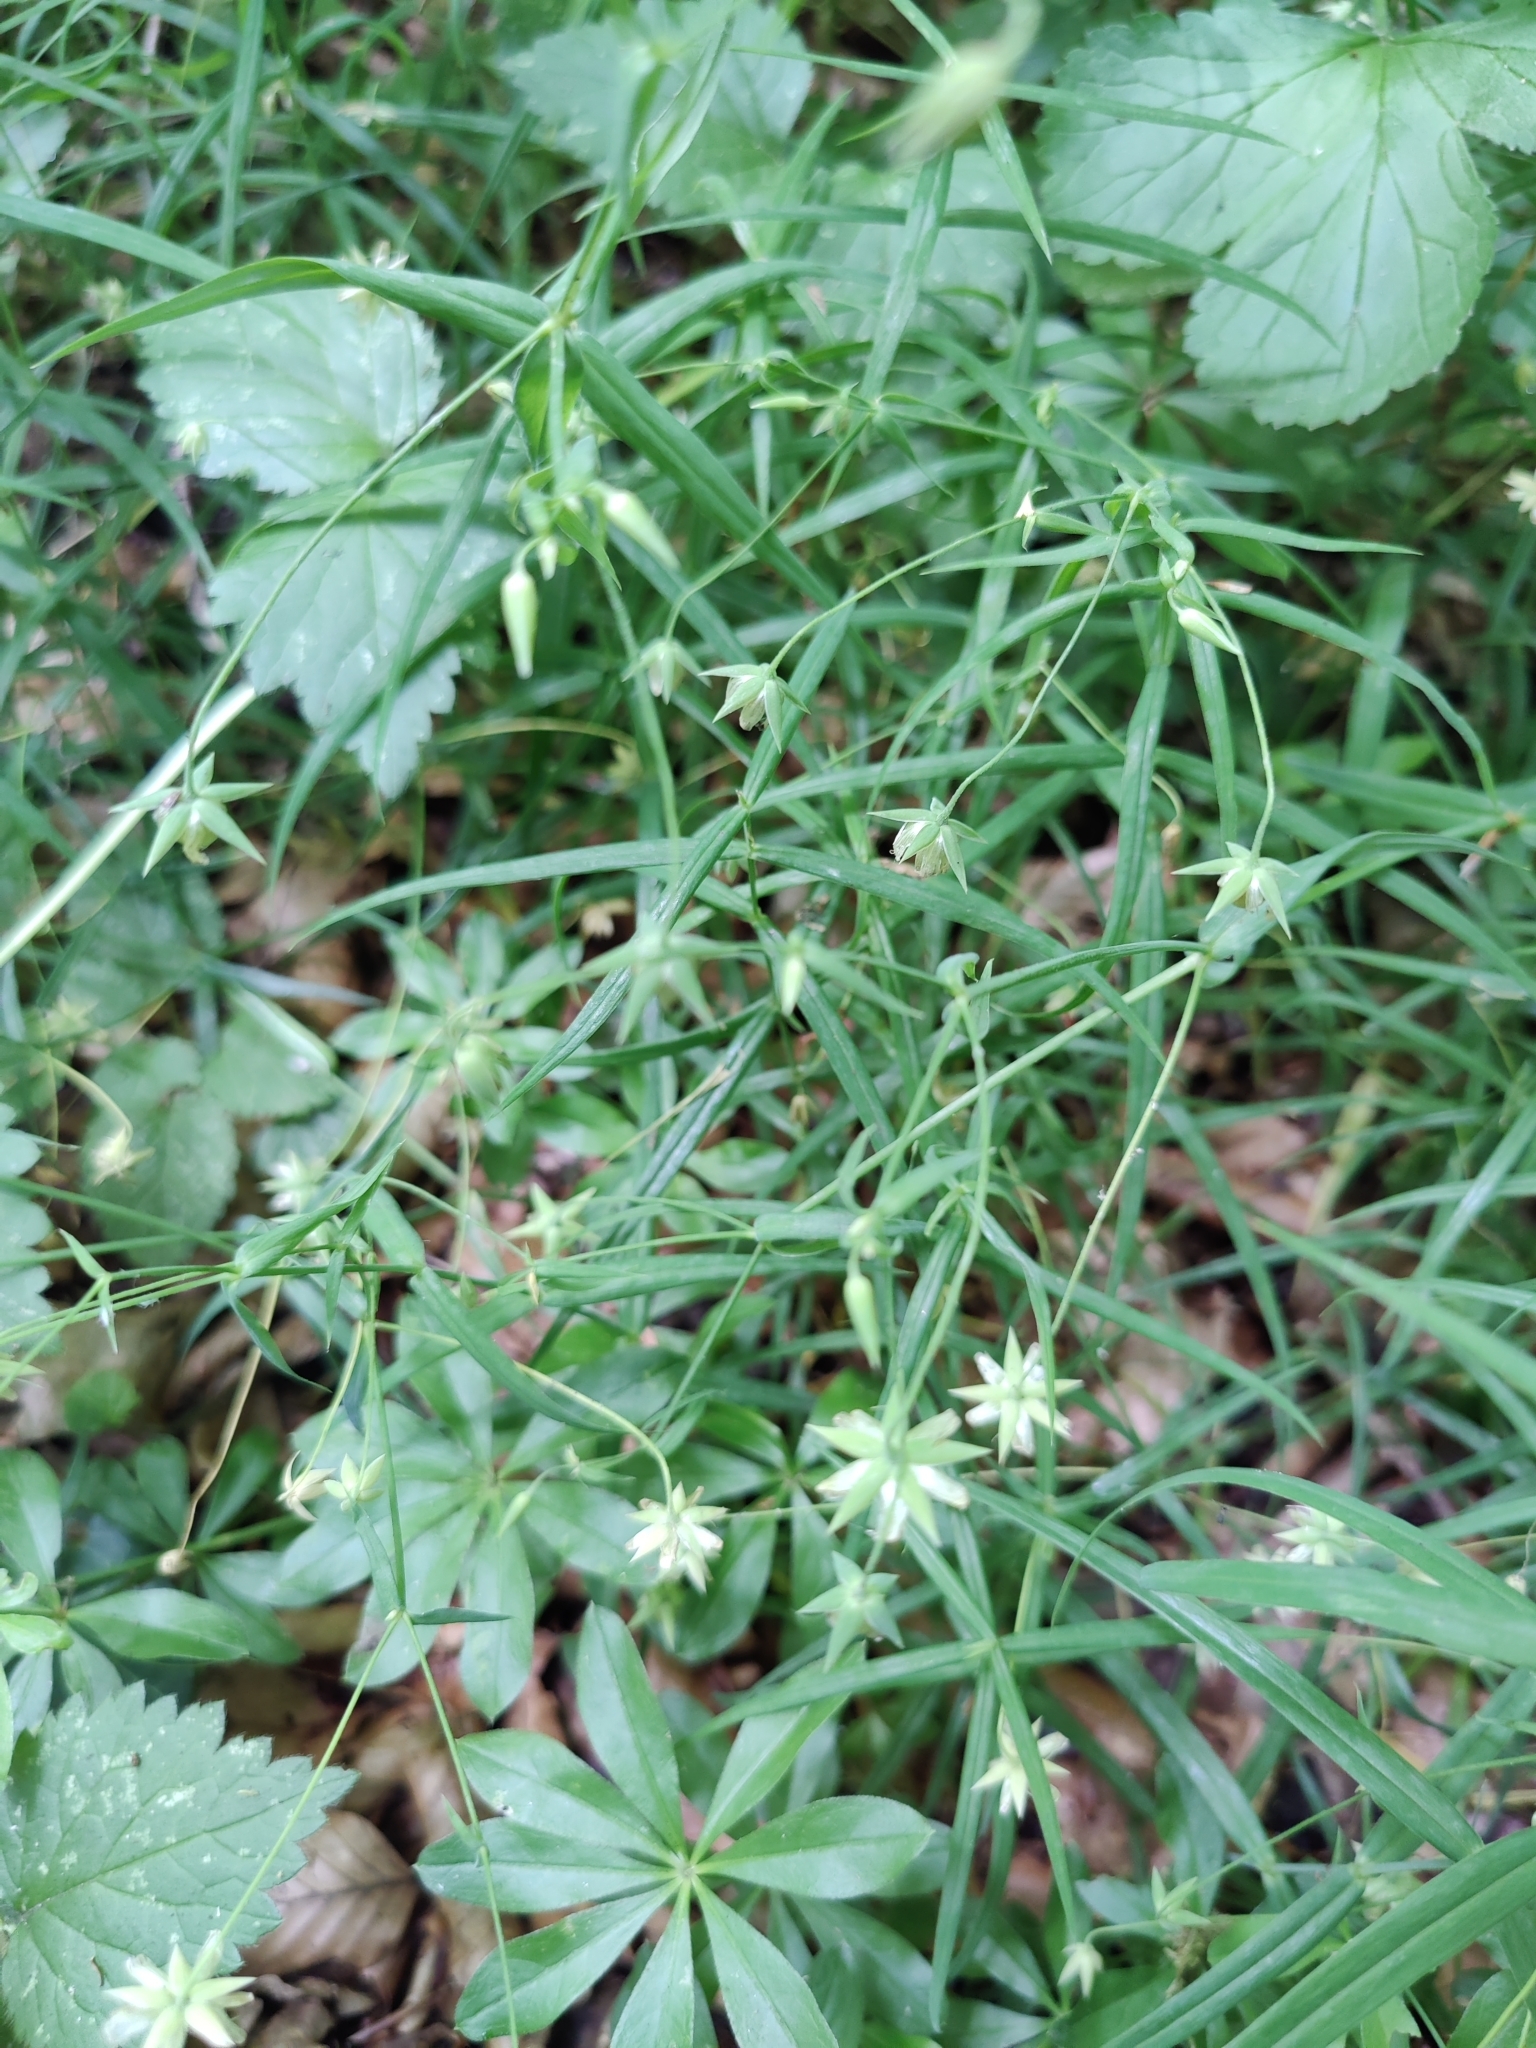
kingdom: Plantae
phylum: Tracheophyta
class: Magnoliopsida
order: Caryophyllales
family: Caryophyllaceae
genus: Rabelera
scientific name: Rabelera holostea
